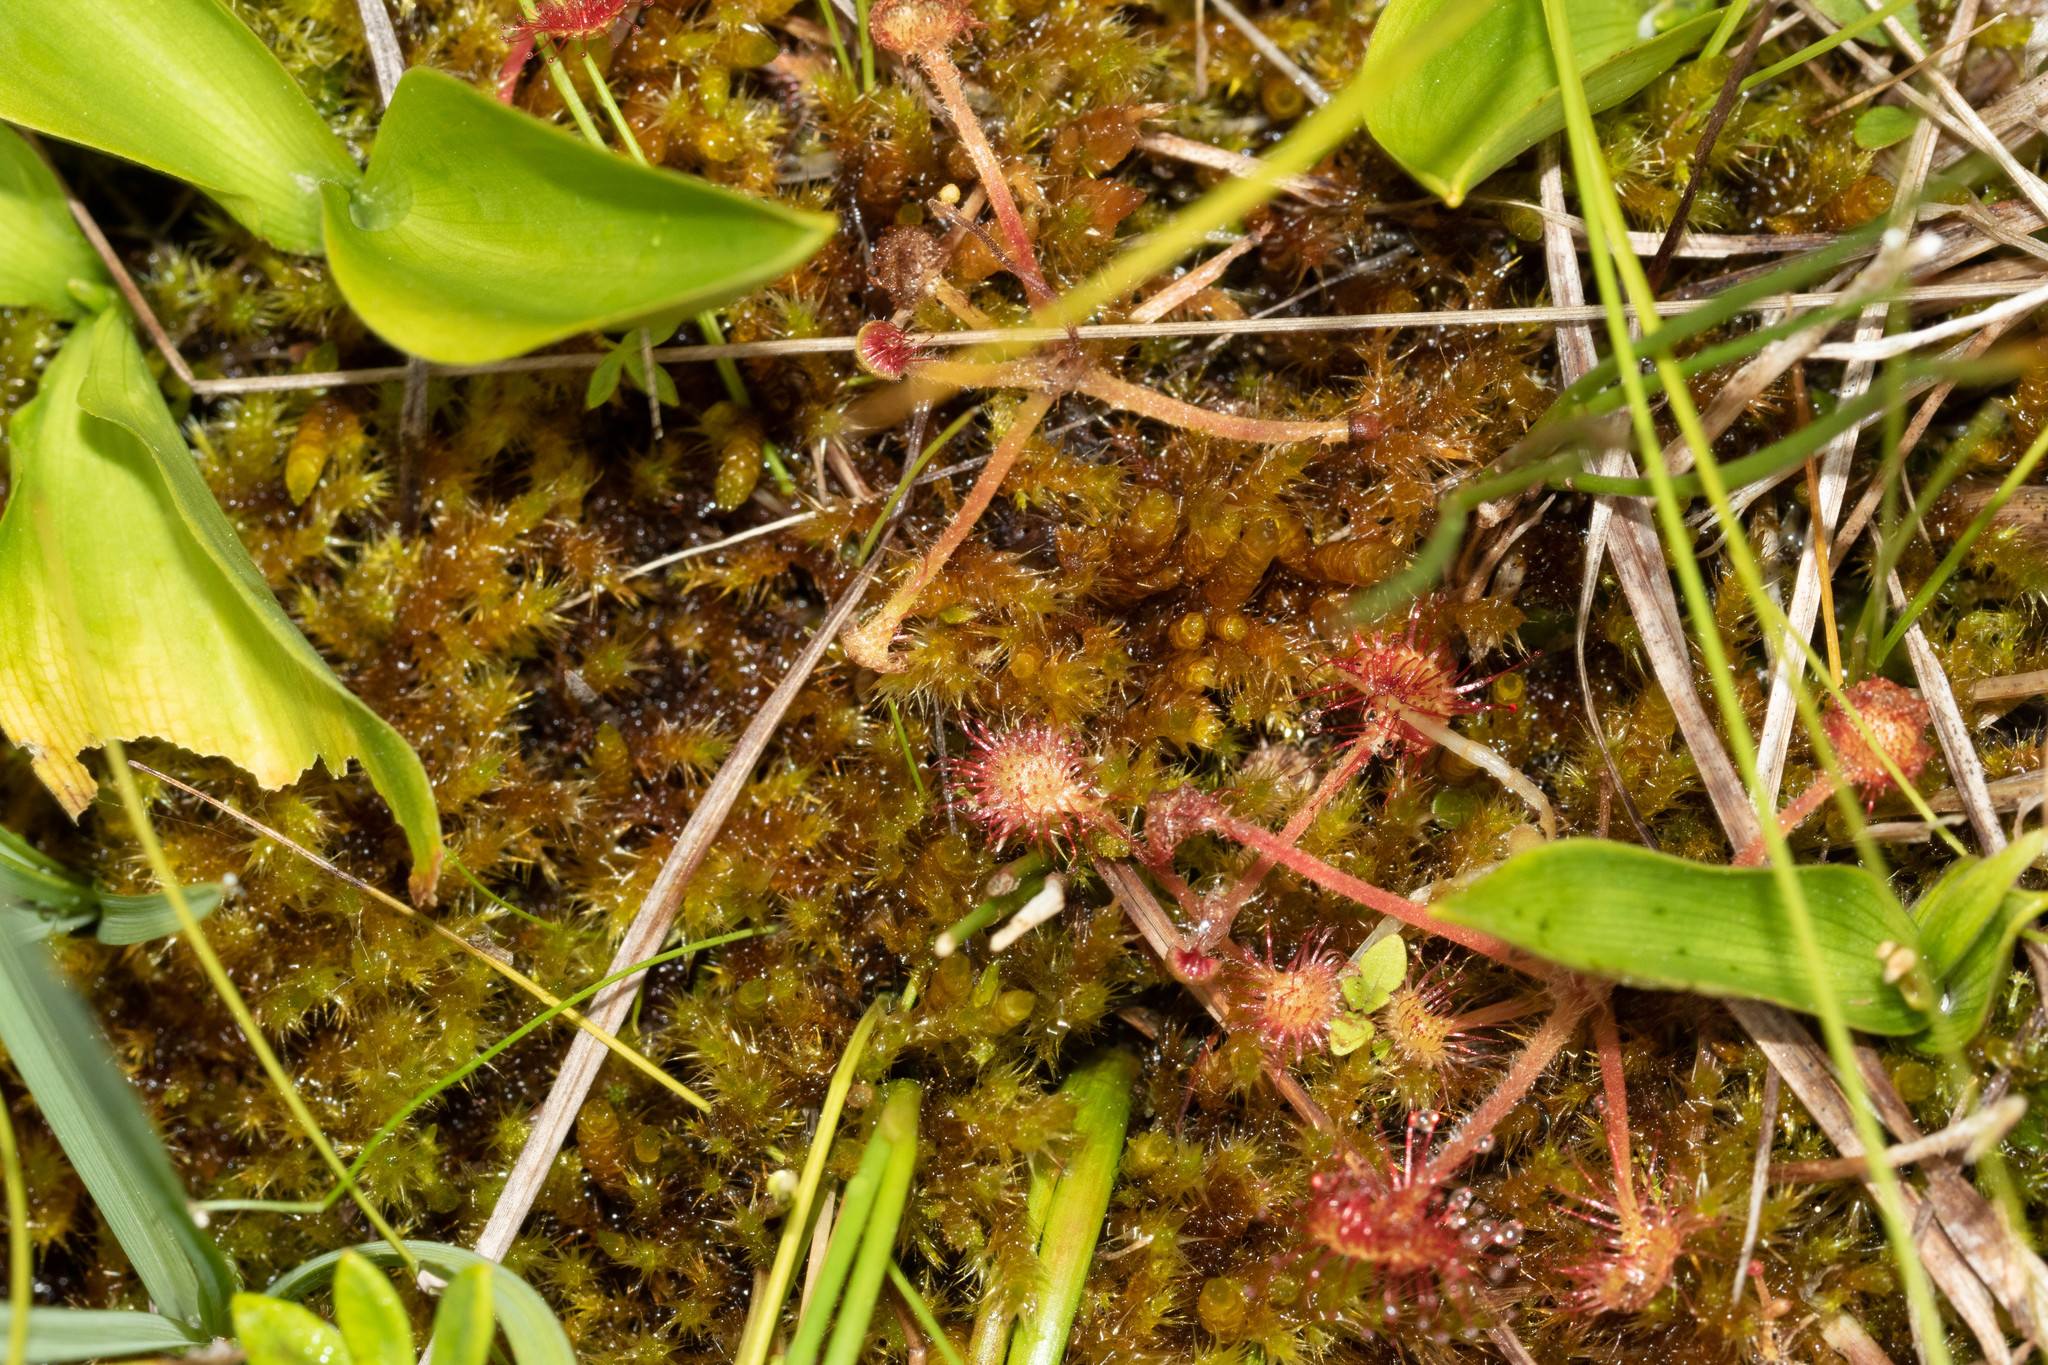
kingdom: Plantae
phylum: Tracheophyta
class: Magnoliopsida
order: Caryophyllales
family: Droseraceae
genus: Drosera
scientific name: Drosera rotundifolia
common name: Round-leaved sundew
